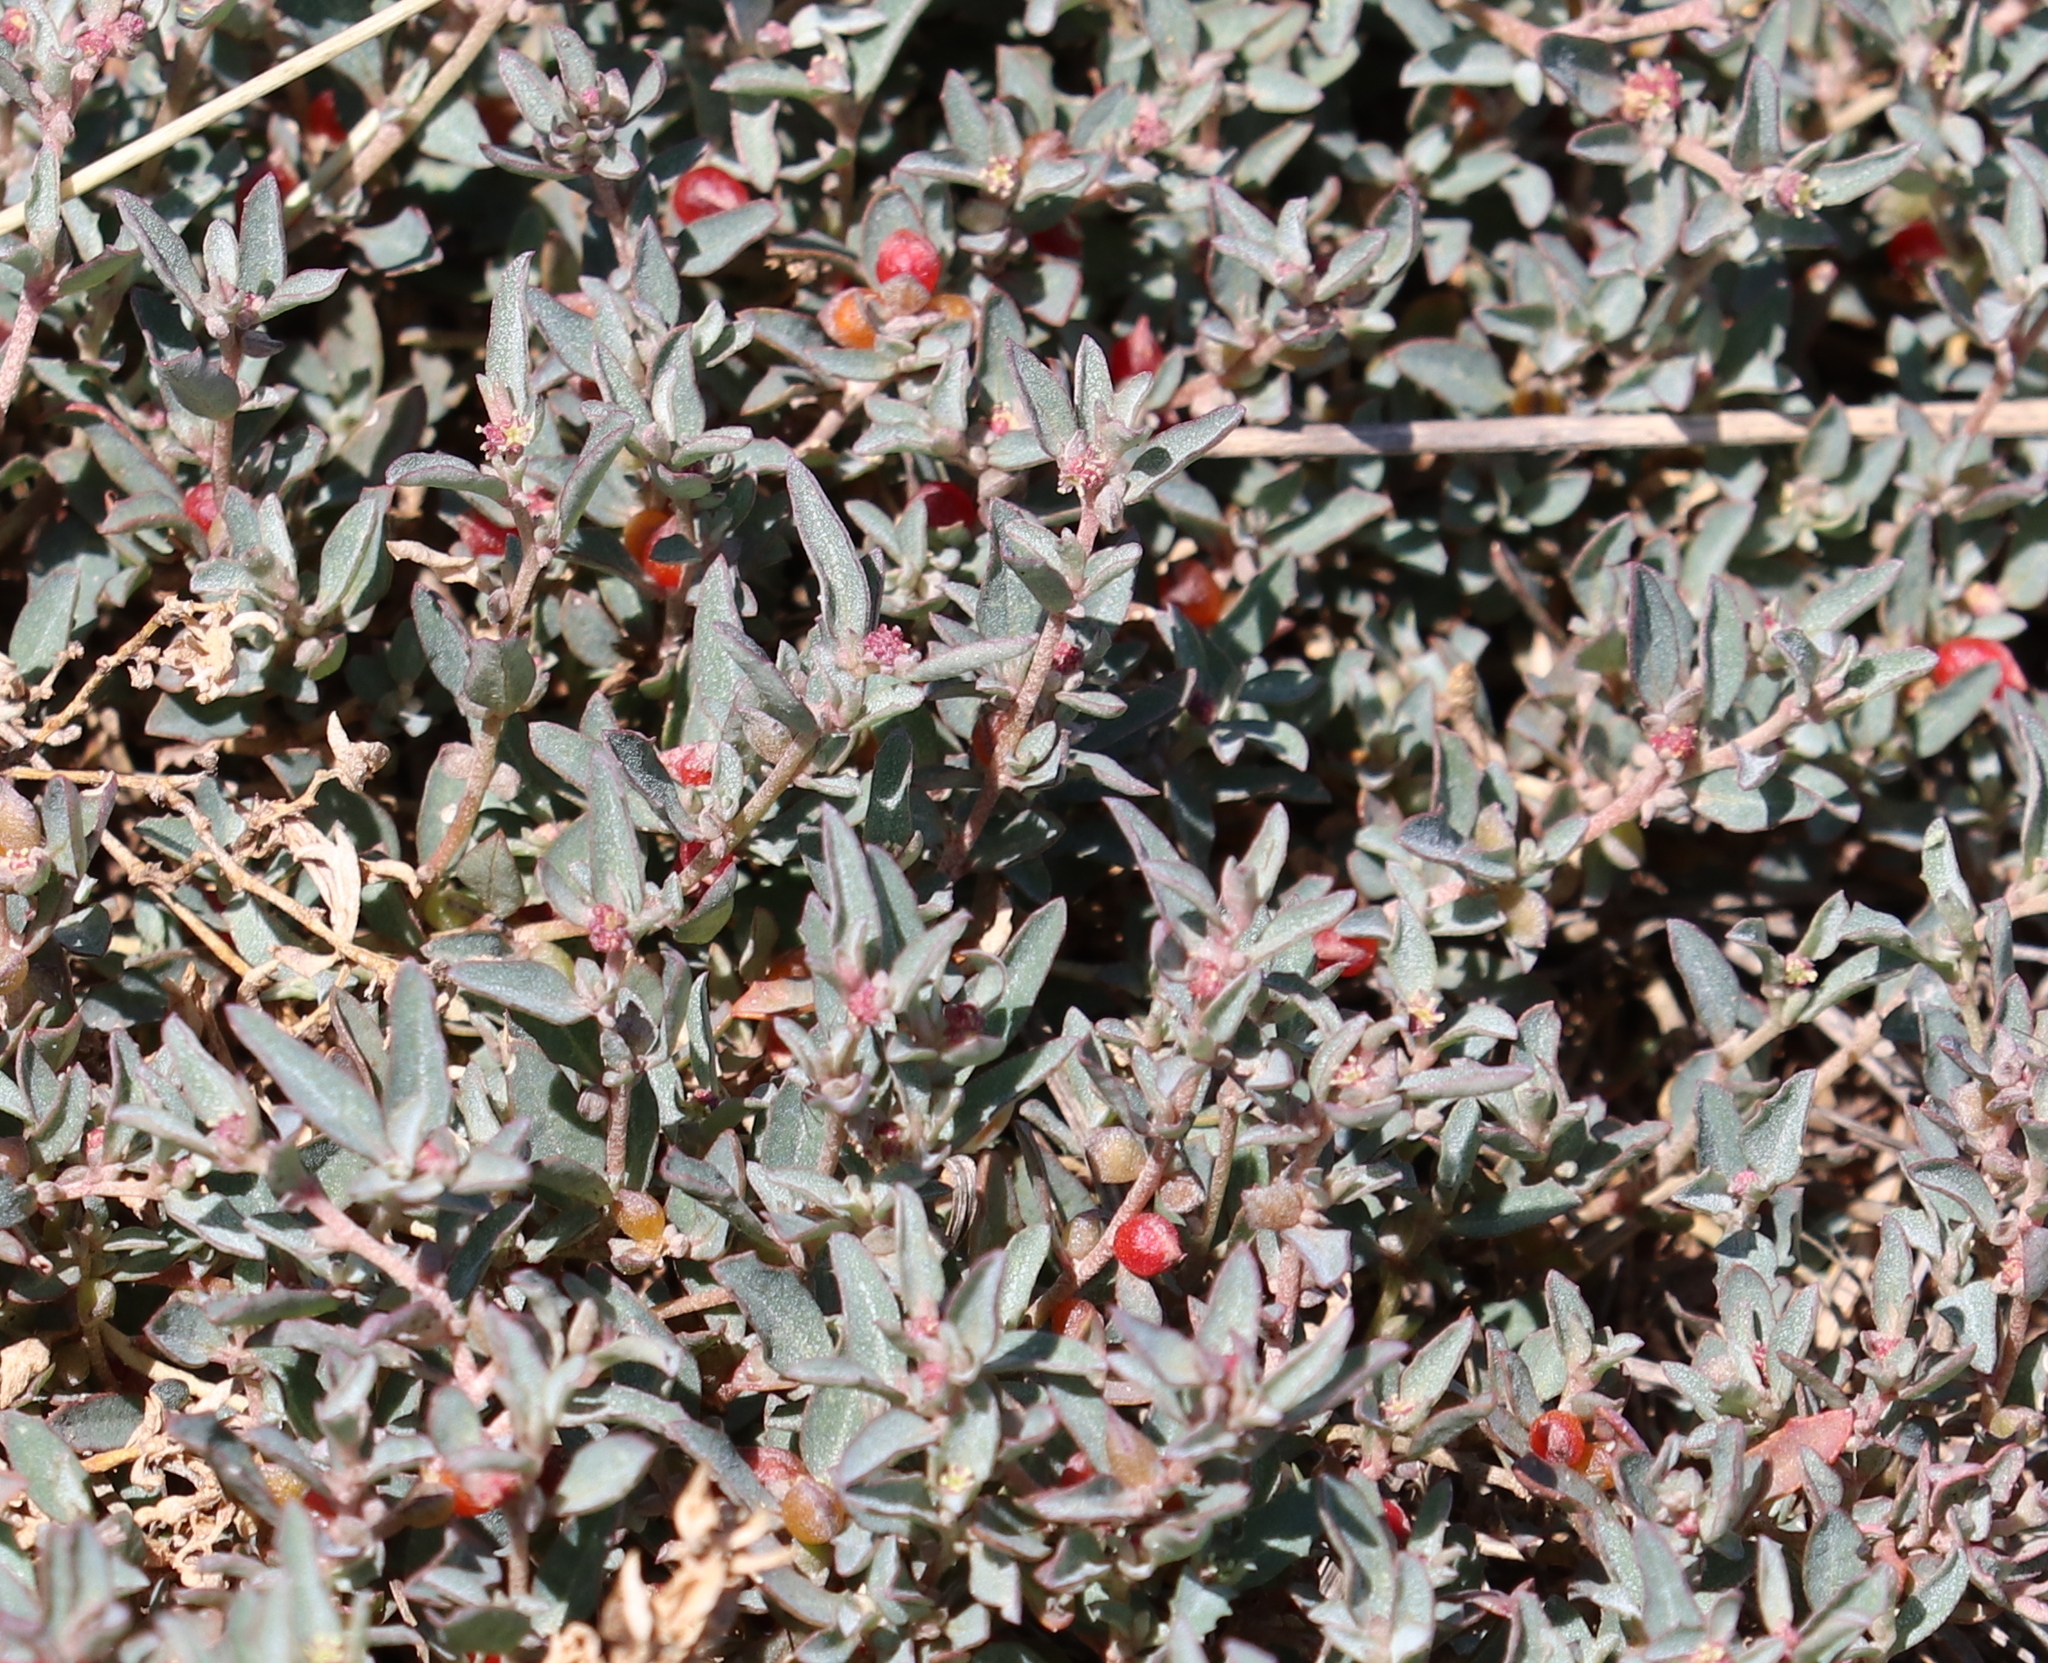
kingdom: Plantae
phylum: Tracheophyta
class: Magnoliopsida
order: Caryophyllales
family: Amaranthaceae
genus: Atriplex
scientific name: Atriplex semibaccata
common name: Australian saltbush
